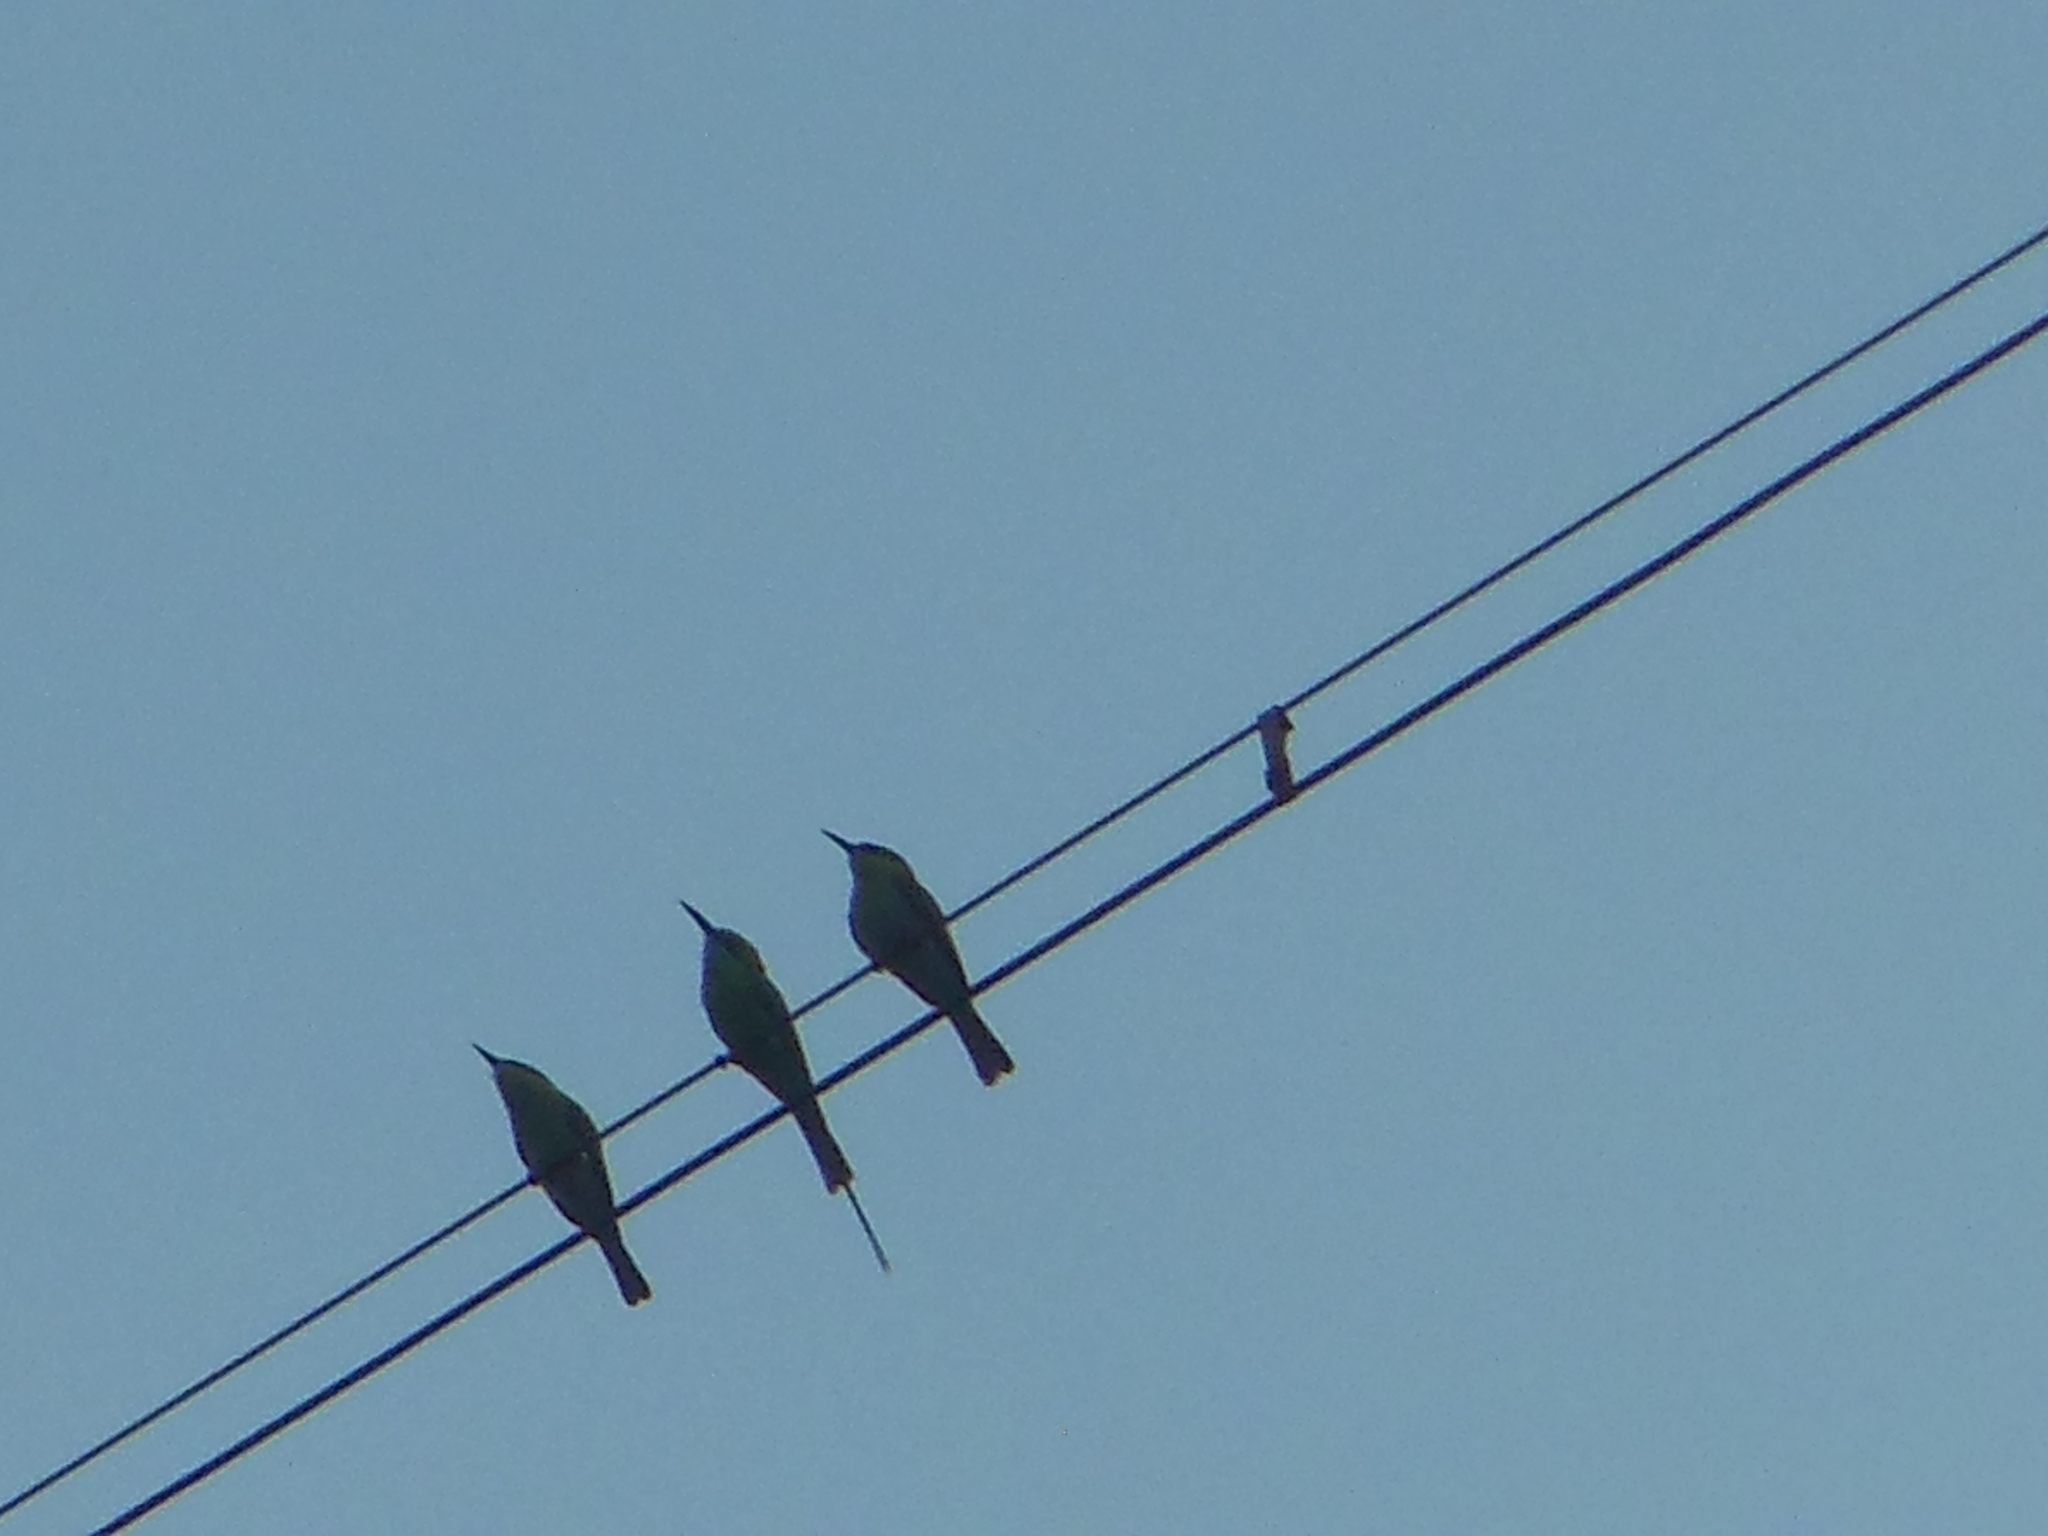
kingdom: Animalia
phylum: Chordata
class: Aves
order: Coraciiformes
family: Meropidae
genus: Merops
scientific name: Merops orientalis
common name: Green bee-eater
